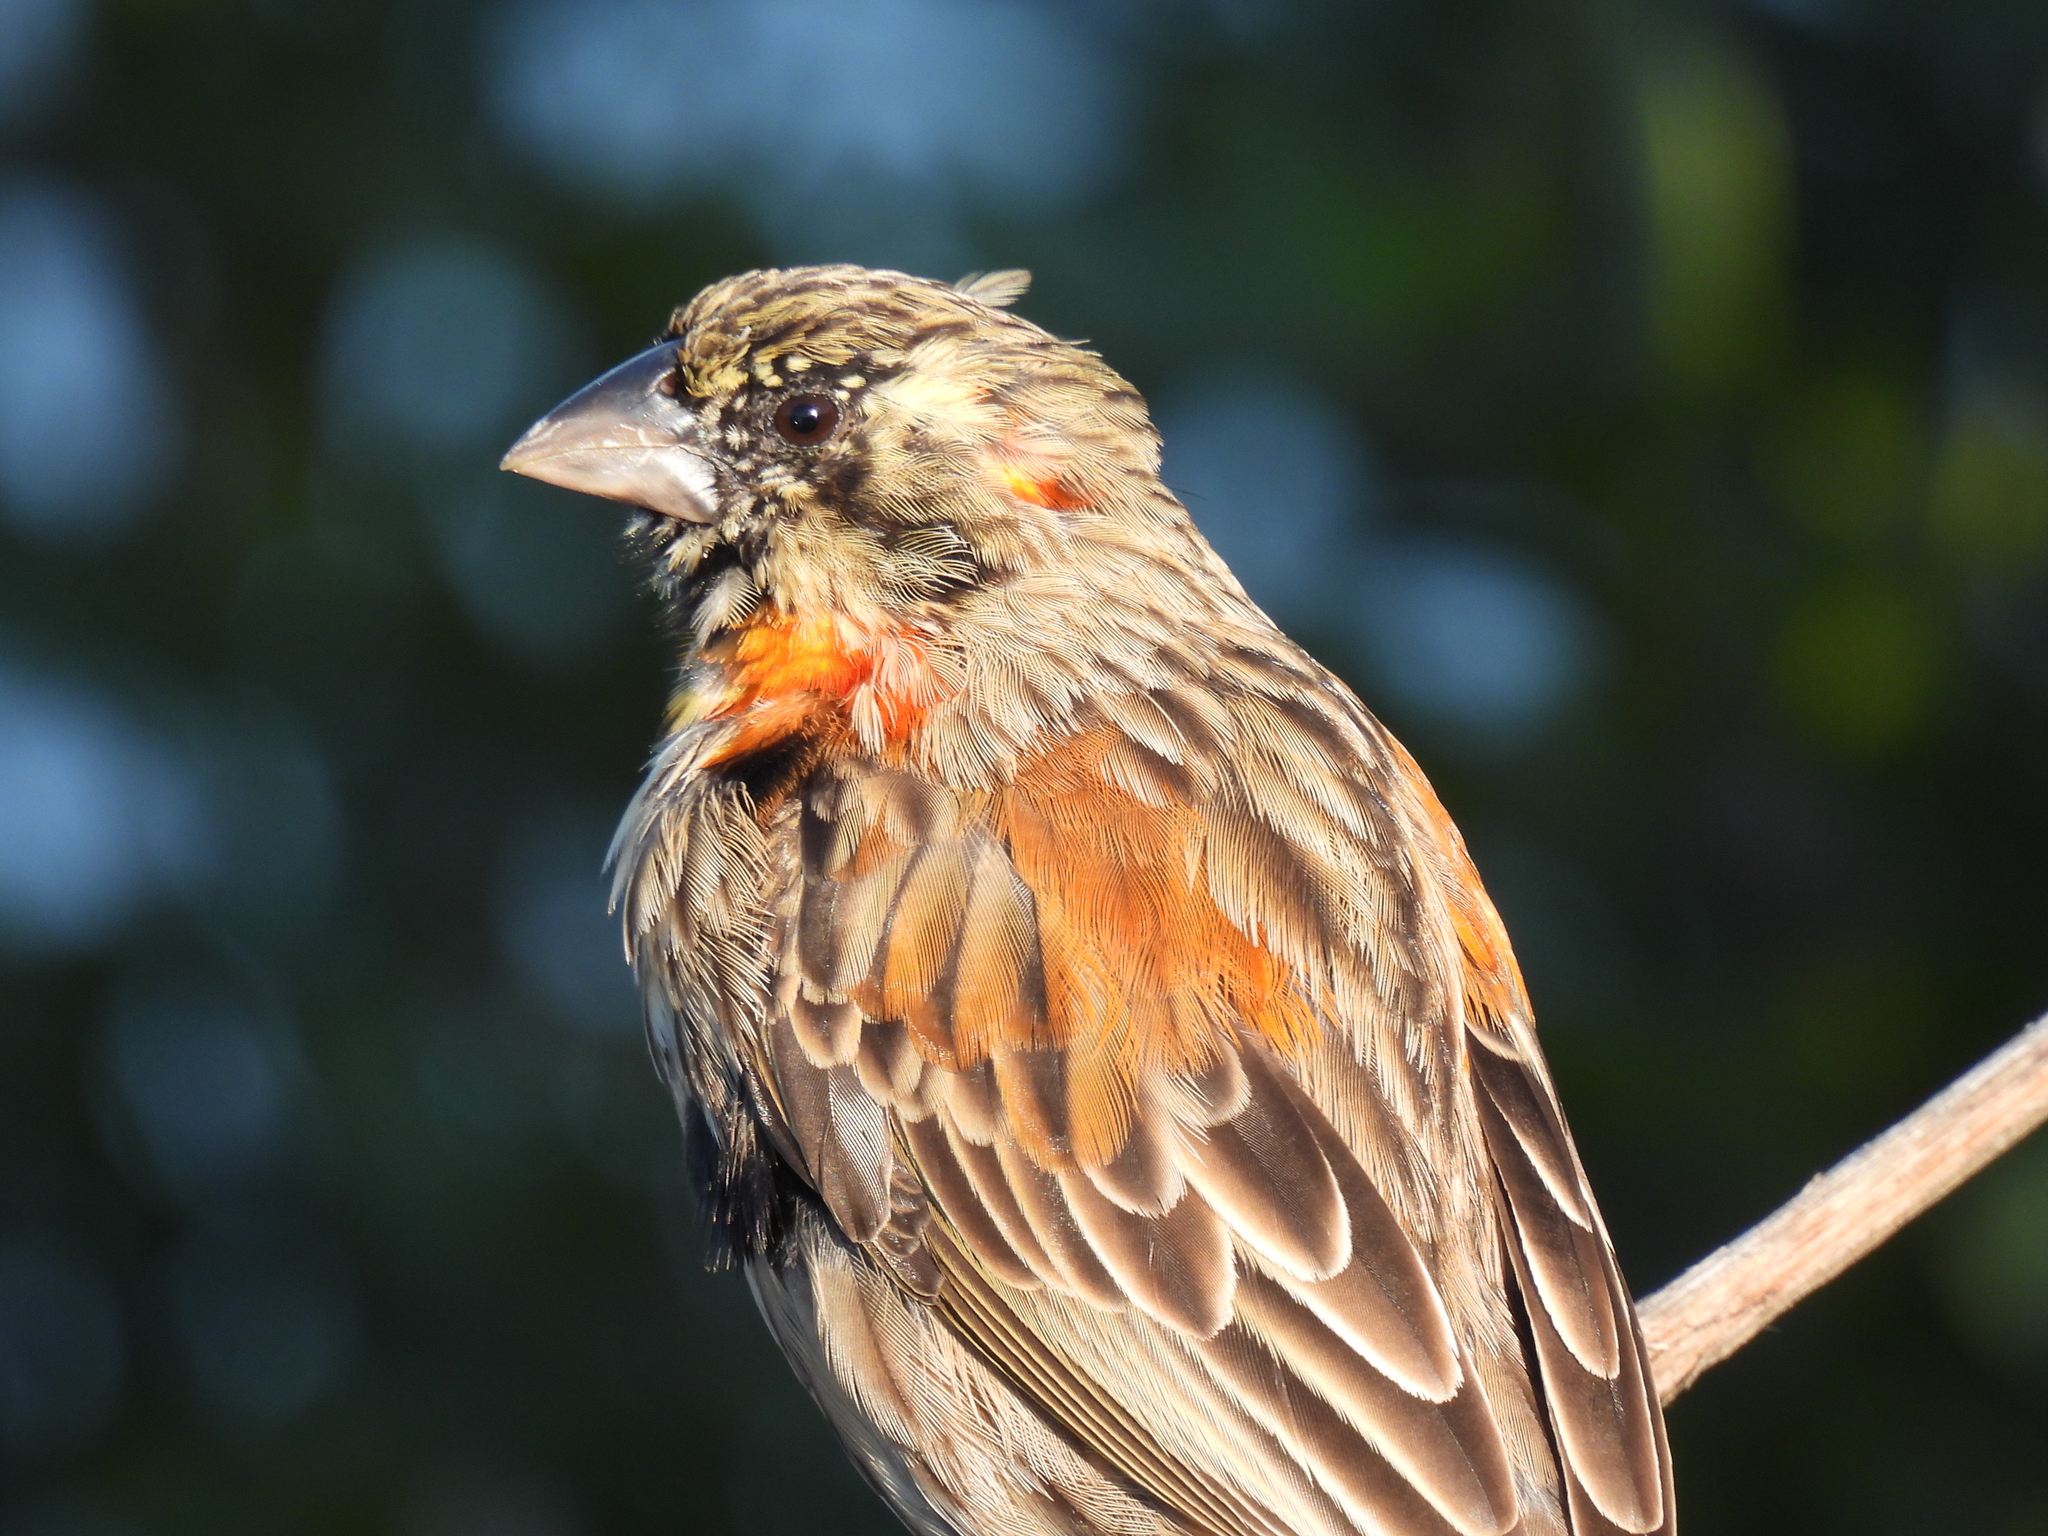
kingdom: Animalia
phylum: Chordata
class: Aves
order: Passeriformes
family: Ploceidae
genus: Euplectes
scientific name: Euplectes orix
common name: Southern red bishop
